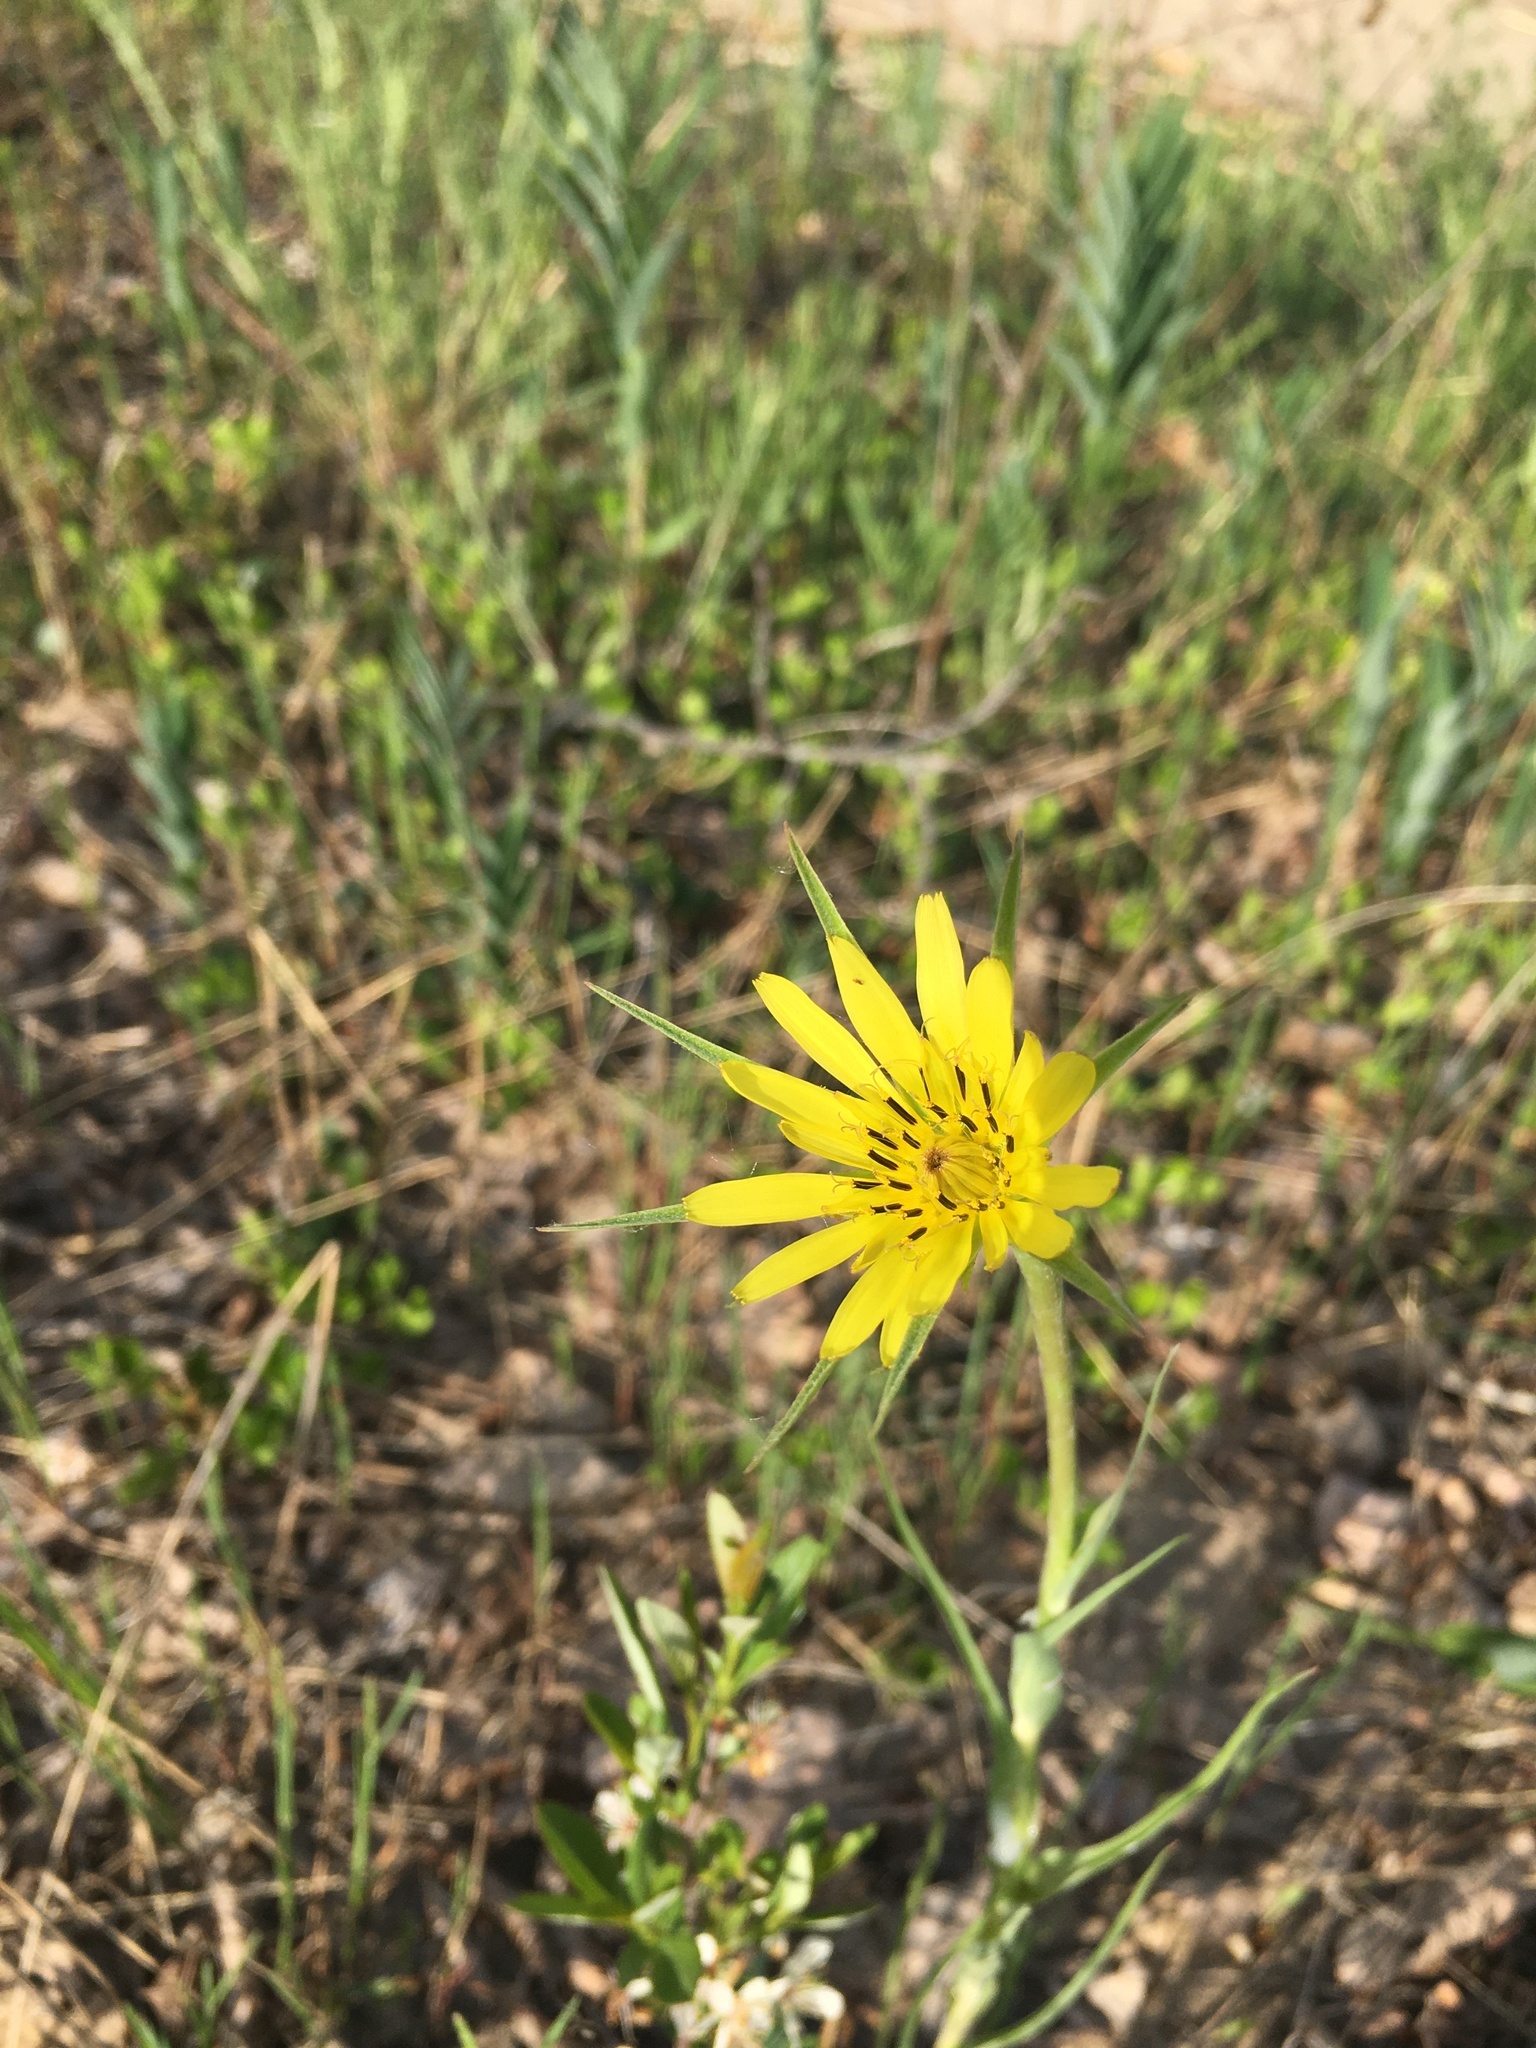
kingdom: Plantae
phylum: Tracheophyta
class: Magnoliopsida
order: Asterales
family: Asteraceae
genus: Tragopogon
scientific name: Tragopogon dubius
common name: Yellow salsify
